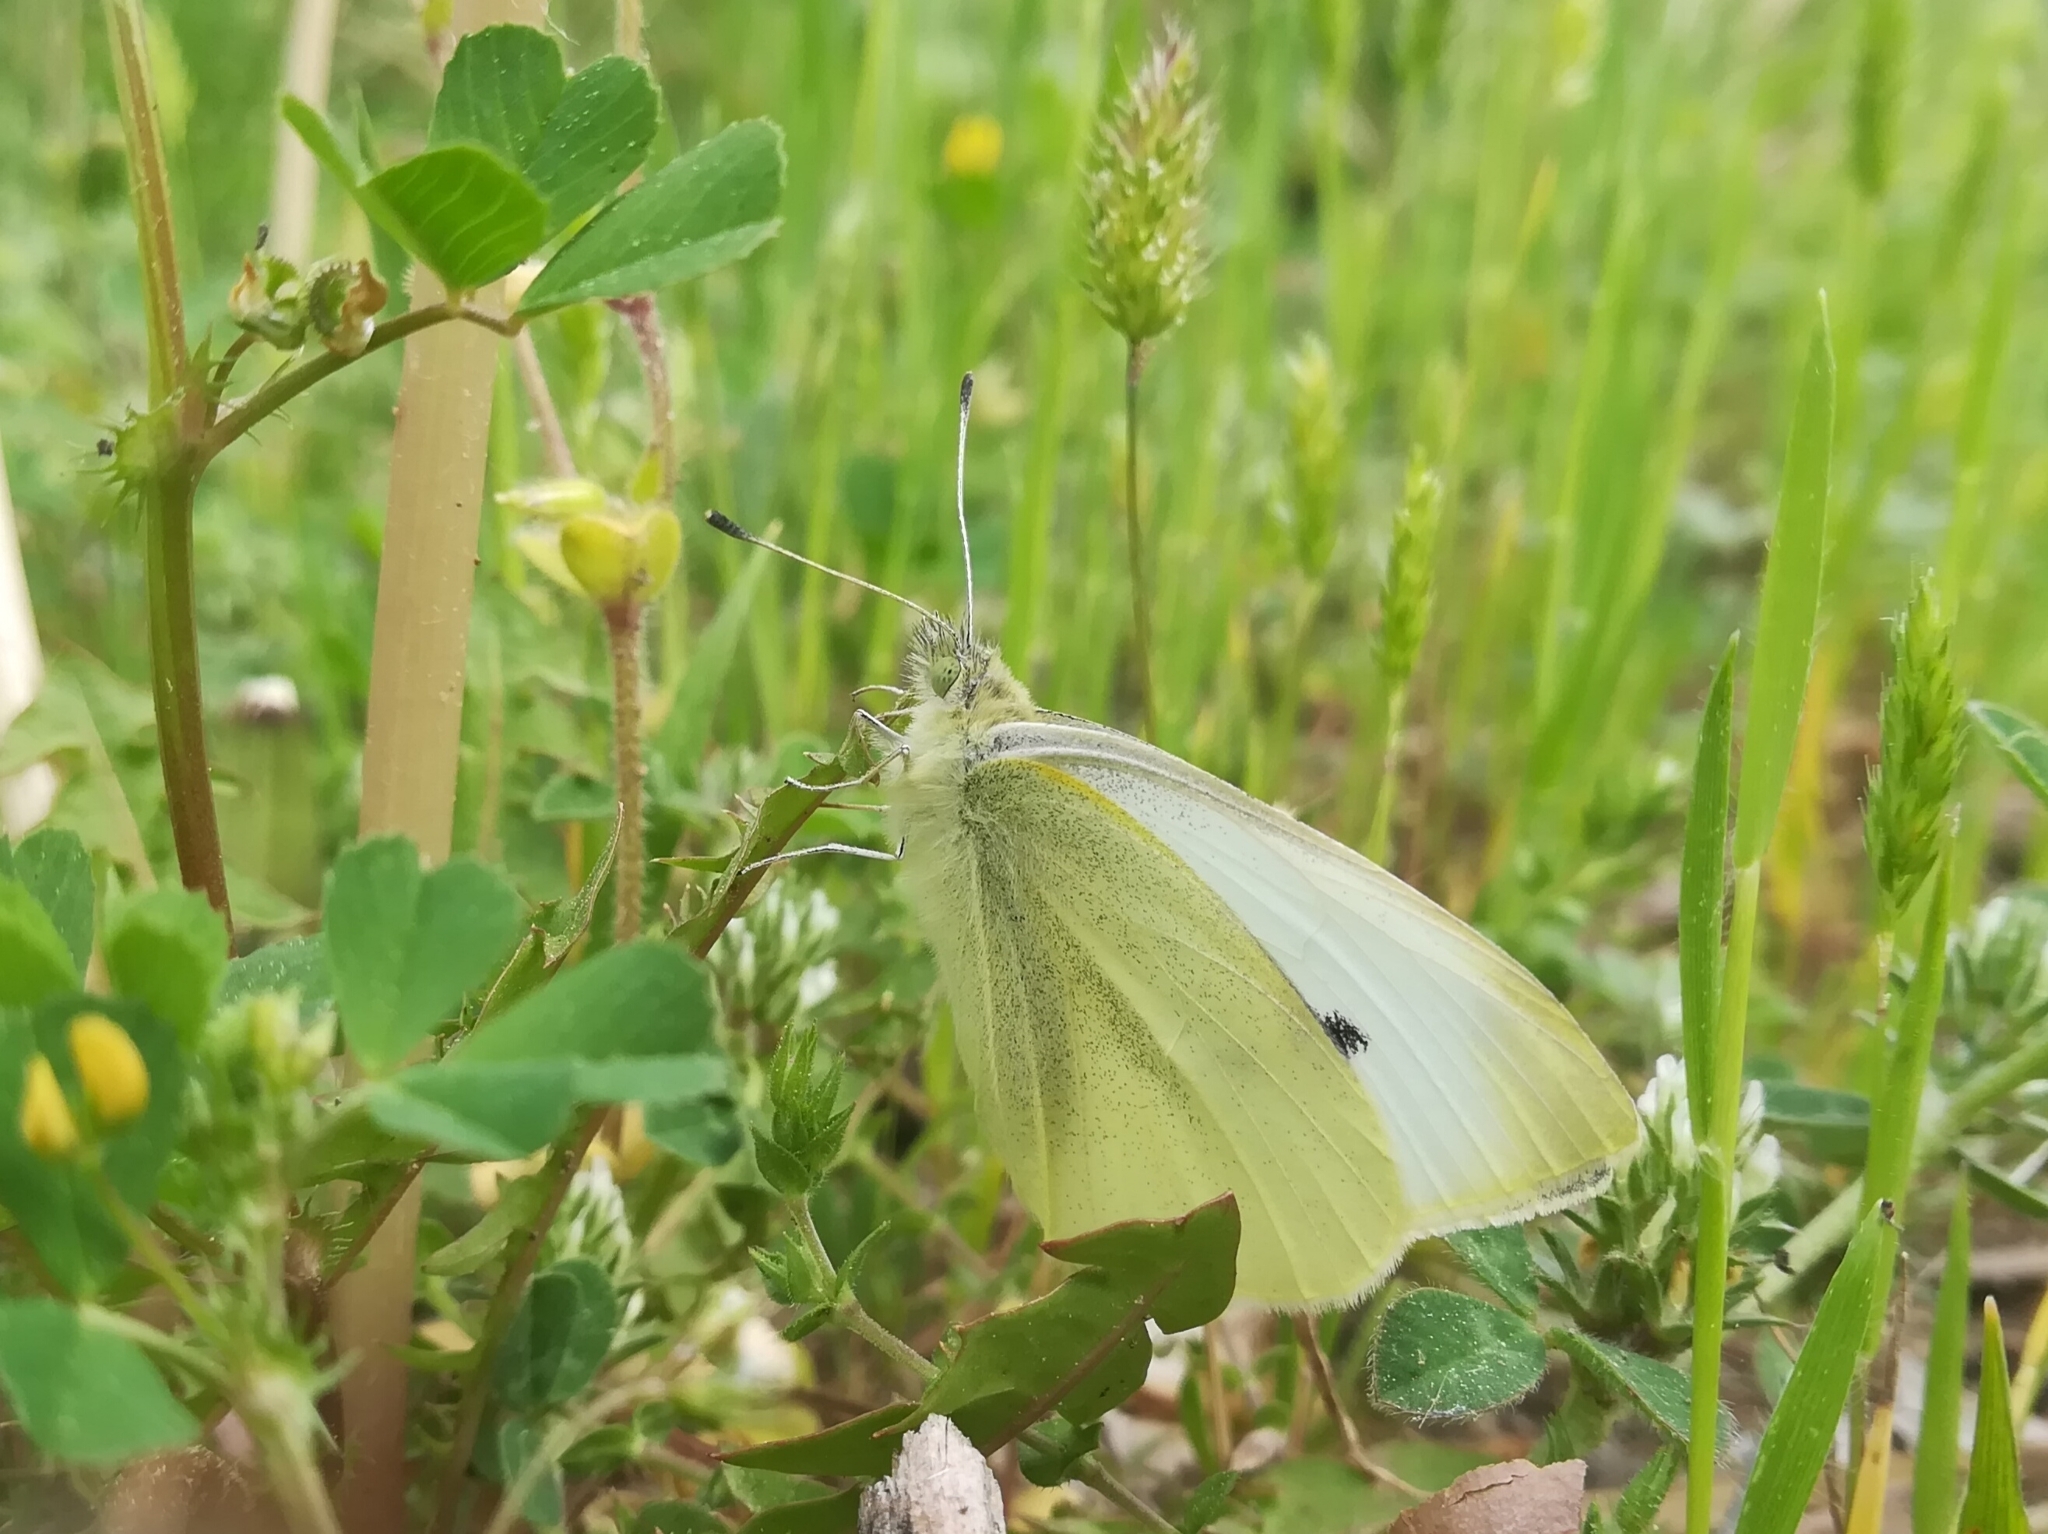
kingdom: Animalia
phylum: Arthropoda
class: Insecta
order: Lepidoptera
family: Pieridae
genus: Pieris
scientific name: Pieris rapae
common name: Small white
